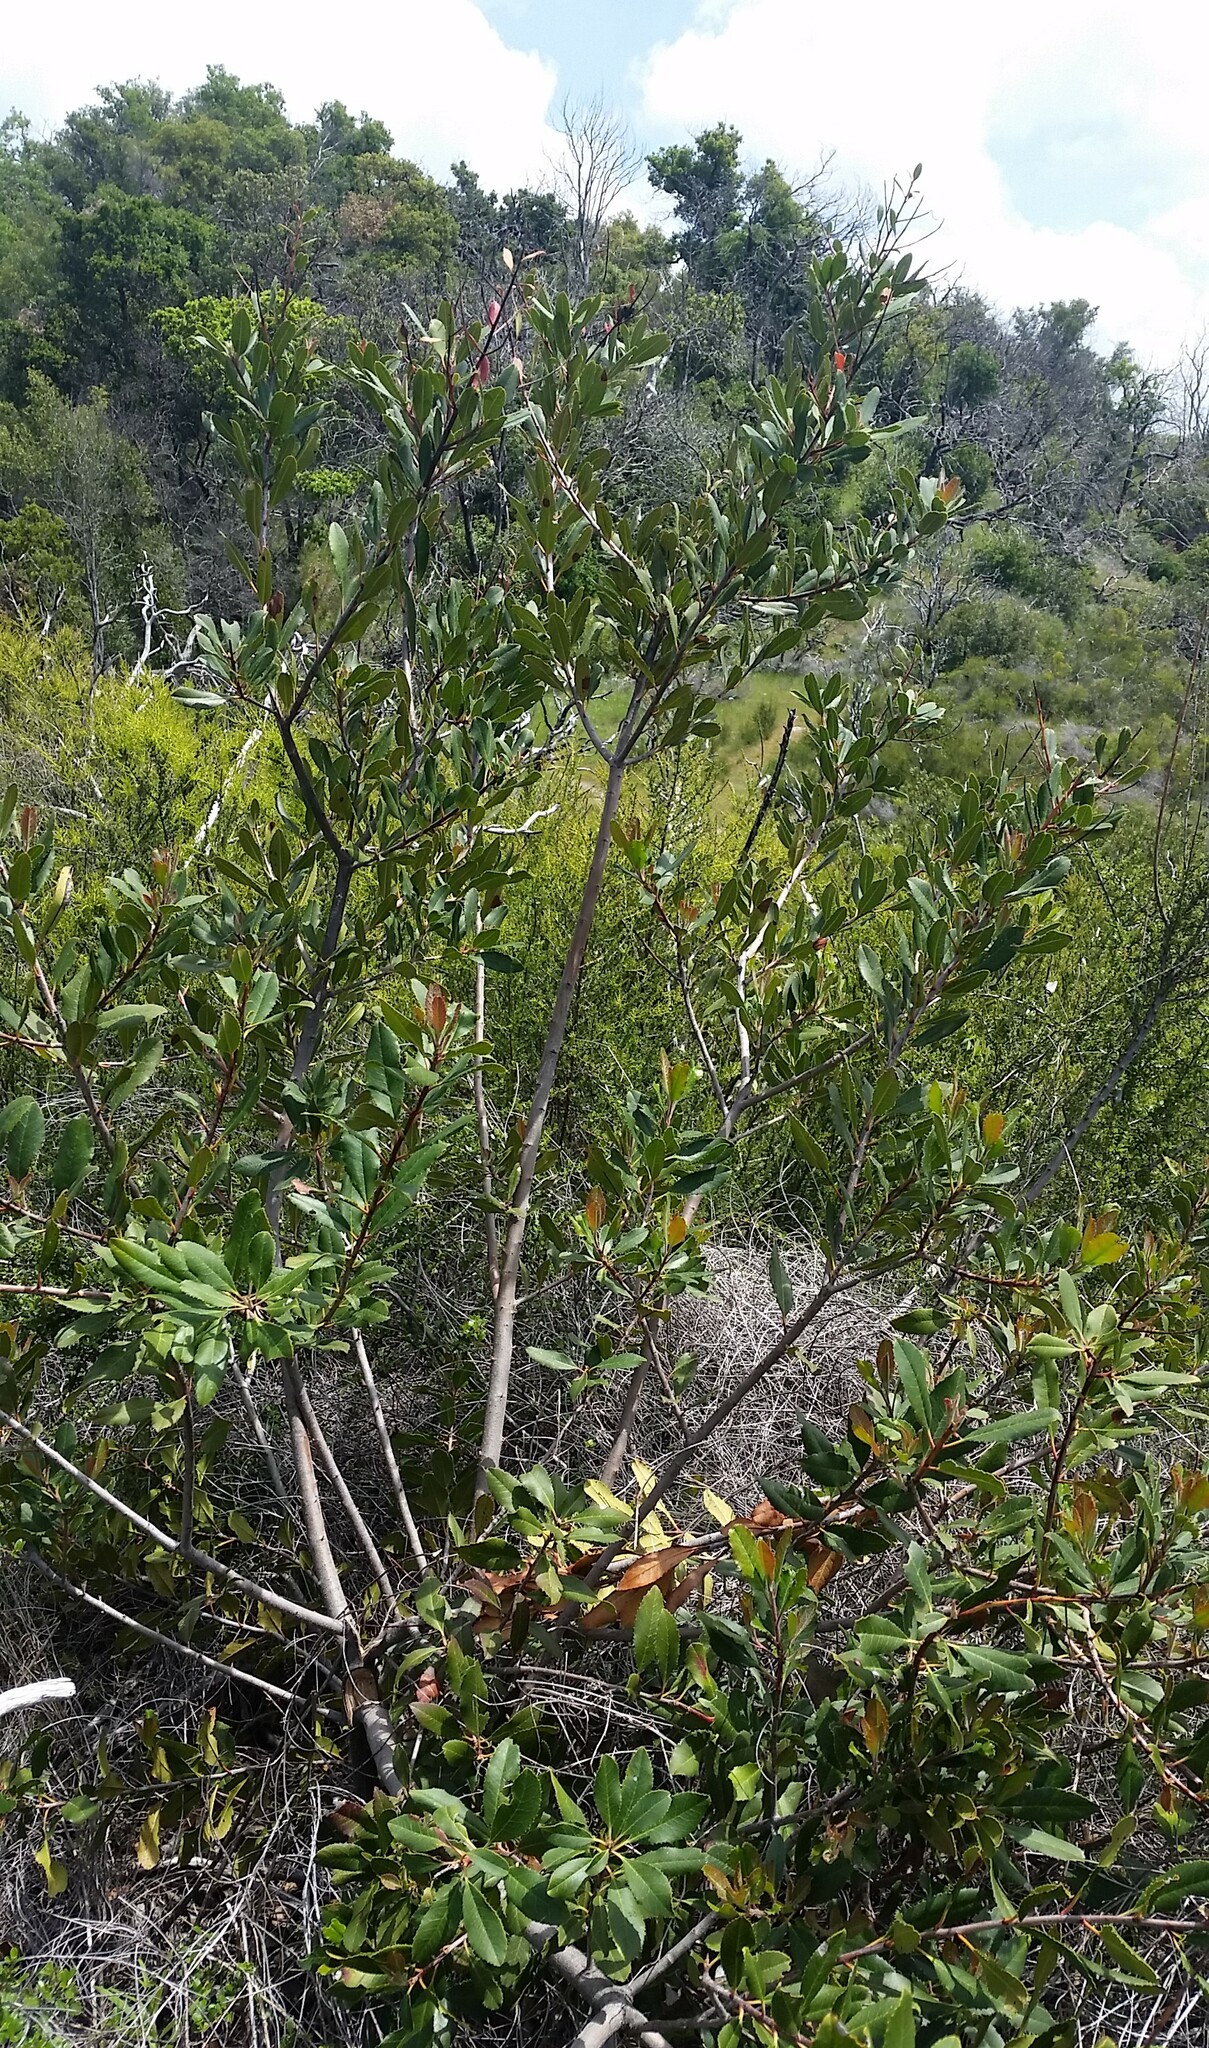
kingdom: Plantae
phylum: Tracheophyta
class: Magnoliopsida
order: Rosales
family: Rosaceae
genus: Heteromeles
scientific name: Heteromeles arbutifolia
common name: California-holly
